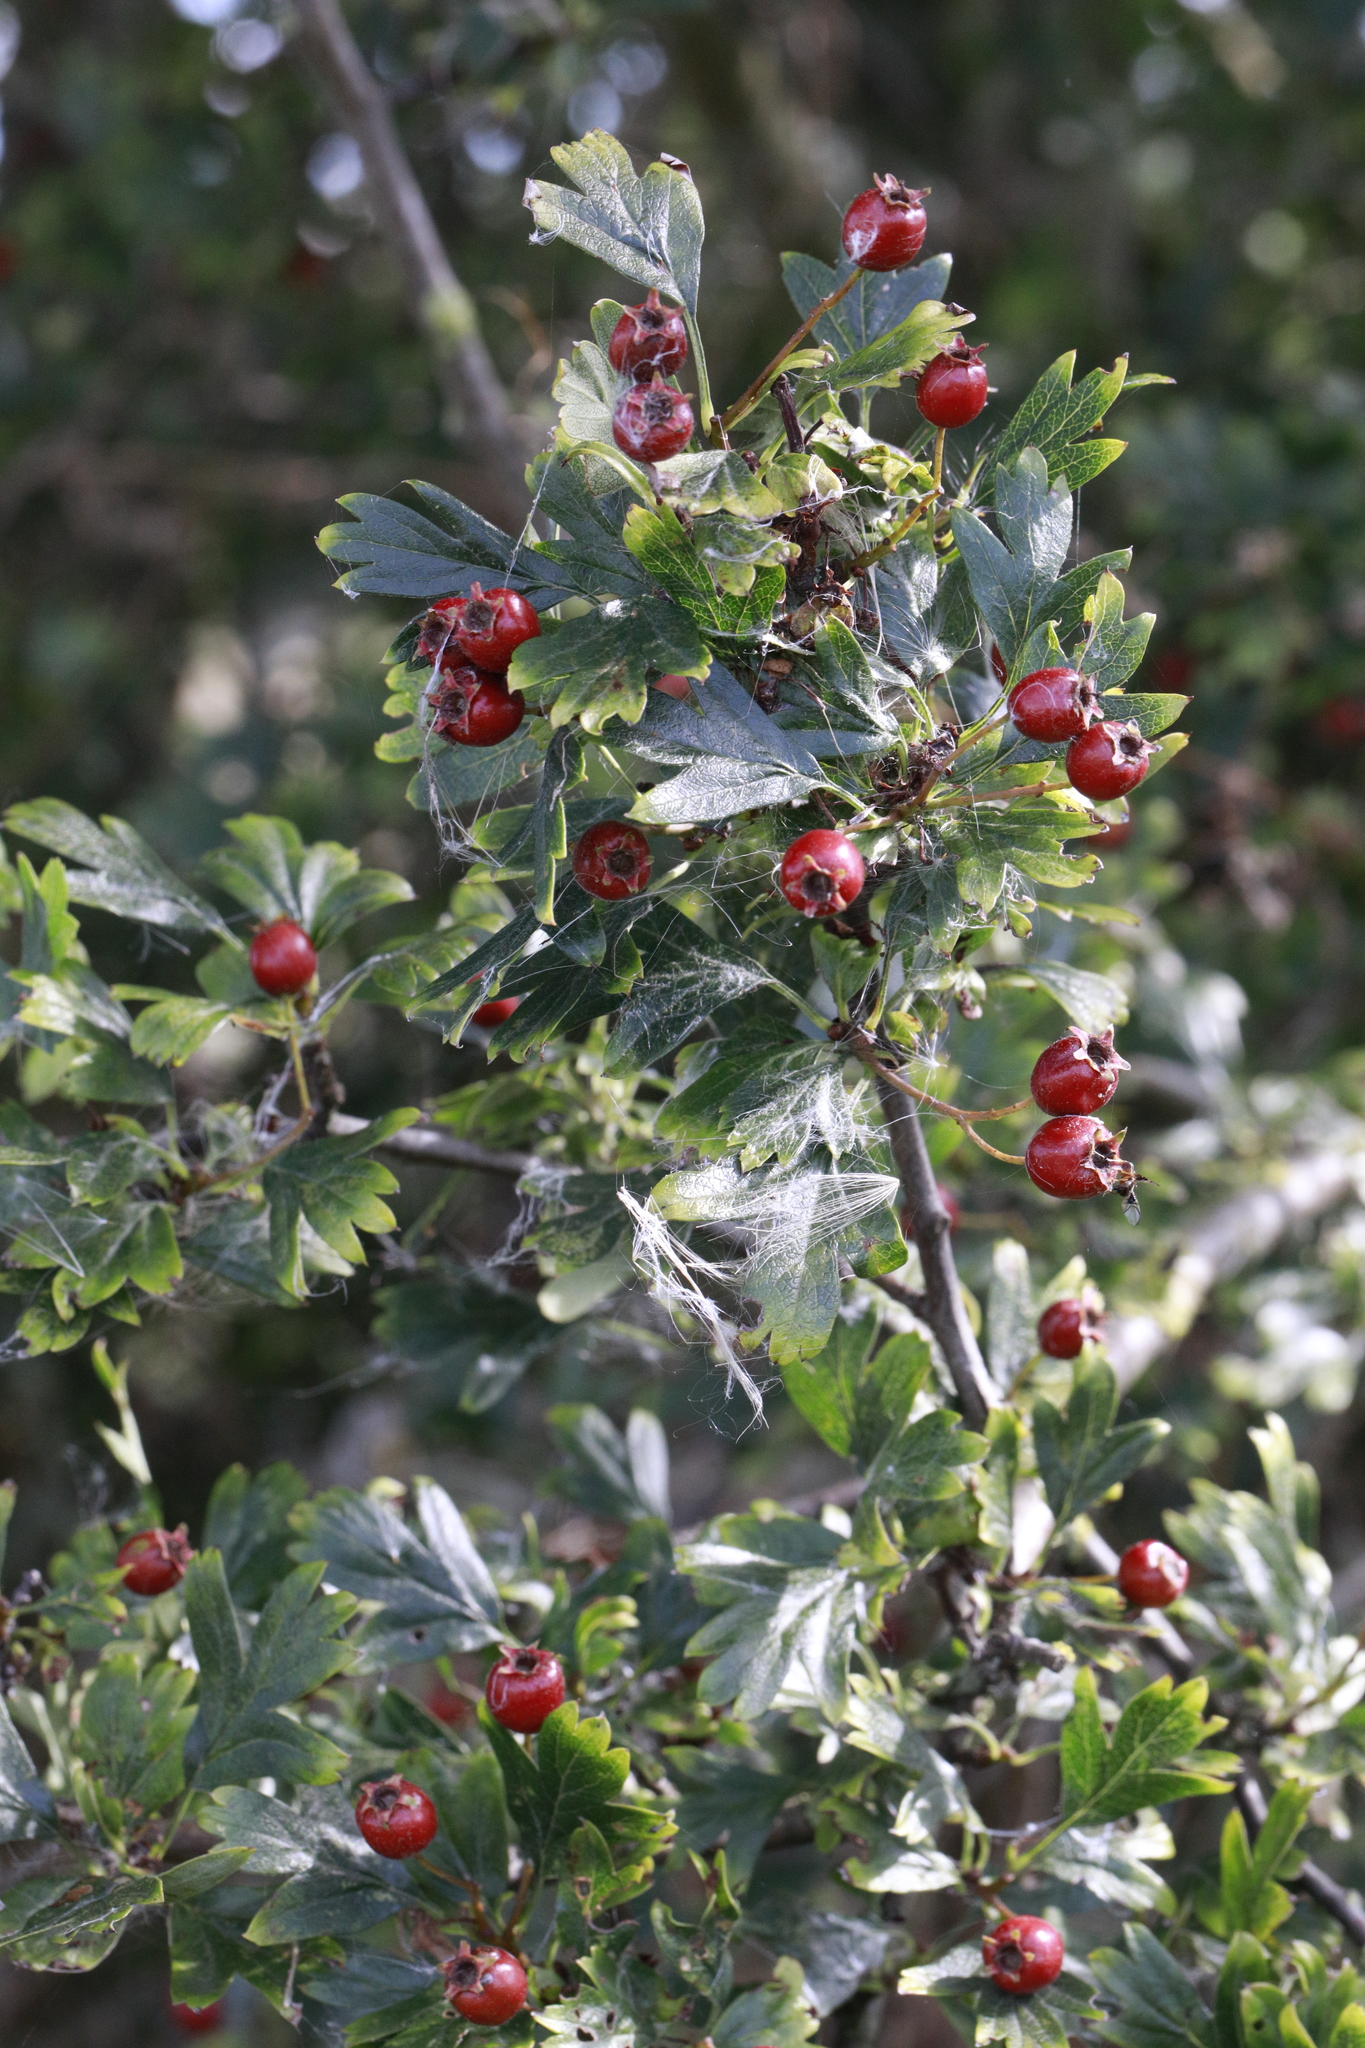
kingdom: Plantae
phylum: Tracheophyta
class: Magnoliopsida
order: Rosales
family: Rosaceae
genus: Crataegus
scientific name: Crataegus monogyna
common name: Hawthorn
